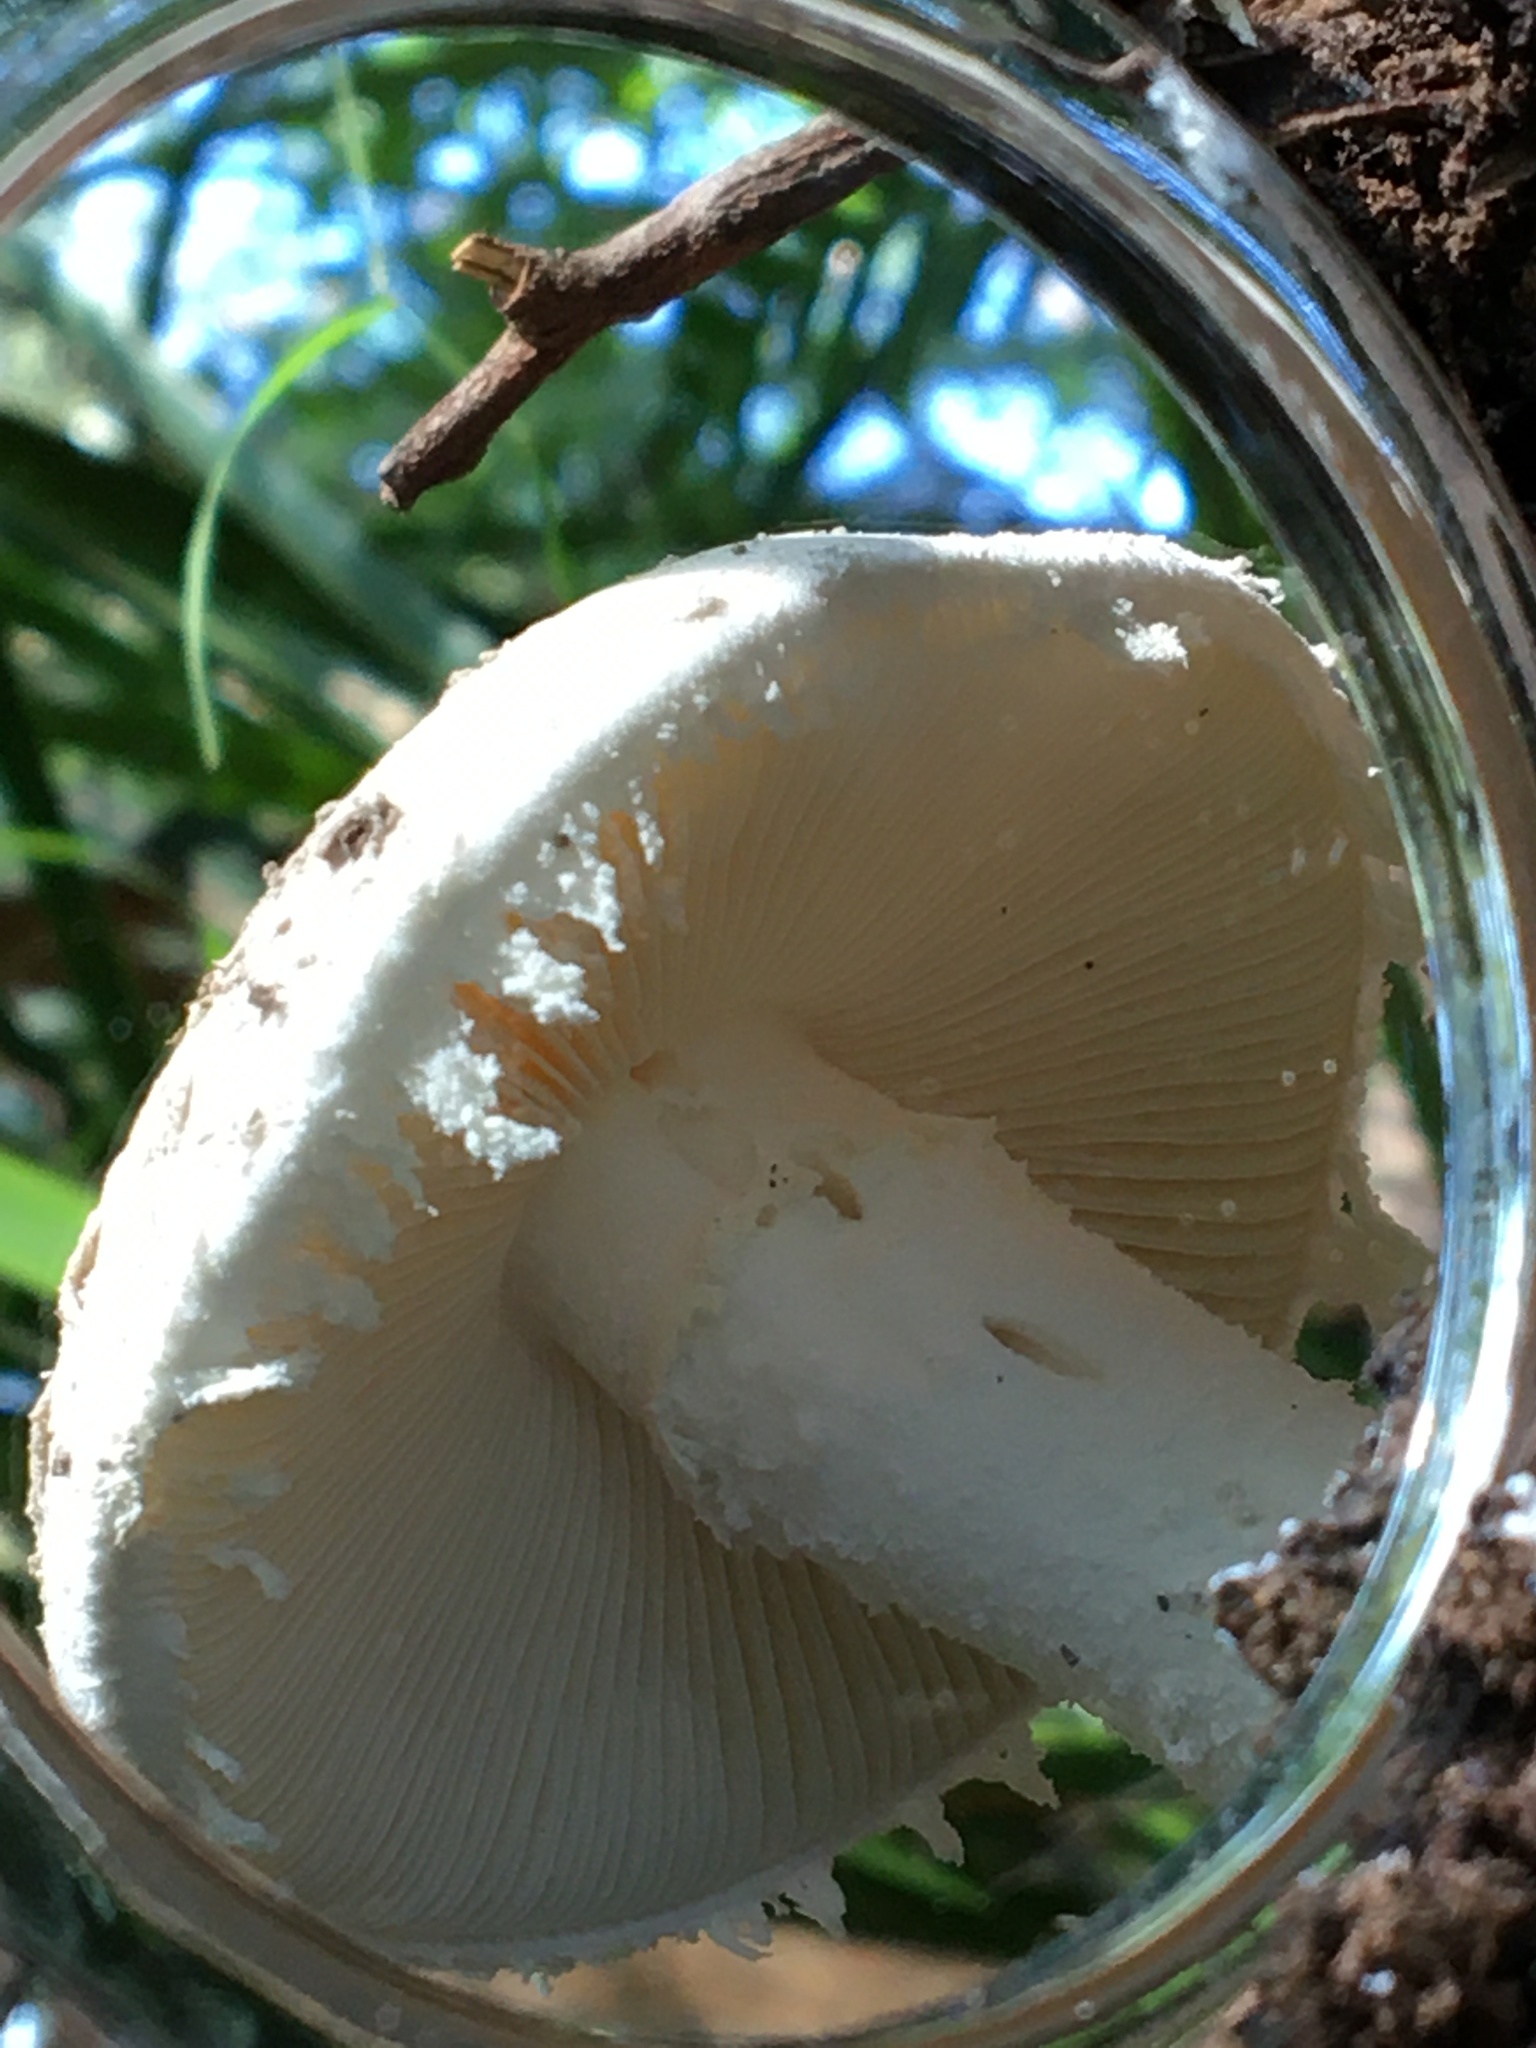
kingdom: Fungi
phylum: Basidiomycota
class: Agaricomycetes
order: Agaricales
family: Amanitaceae
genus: Amanita
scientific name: Amanita farinacea
